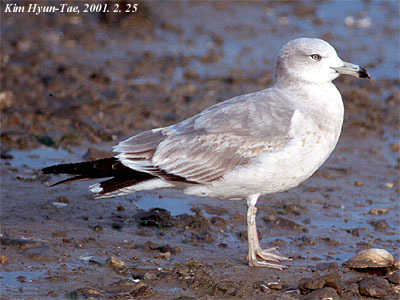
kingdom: Animalia
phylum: Chordata
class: Aves
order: Charadriiformes
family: Laridae
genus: Larus
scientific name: Larus crassirostris
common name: Black-tailed gull
